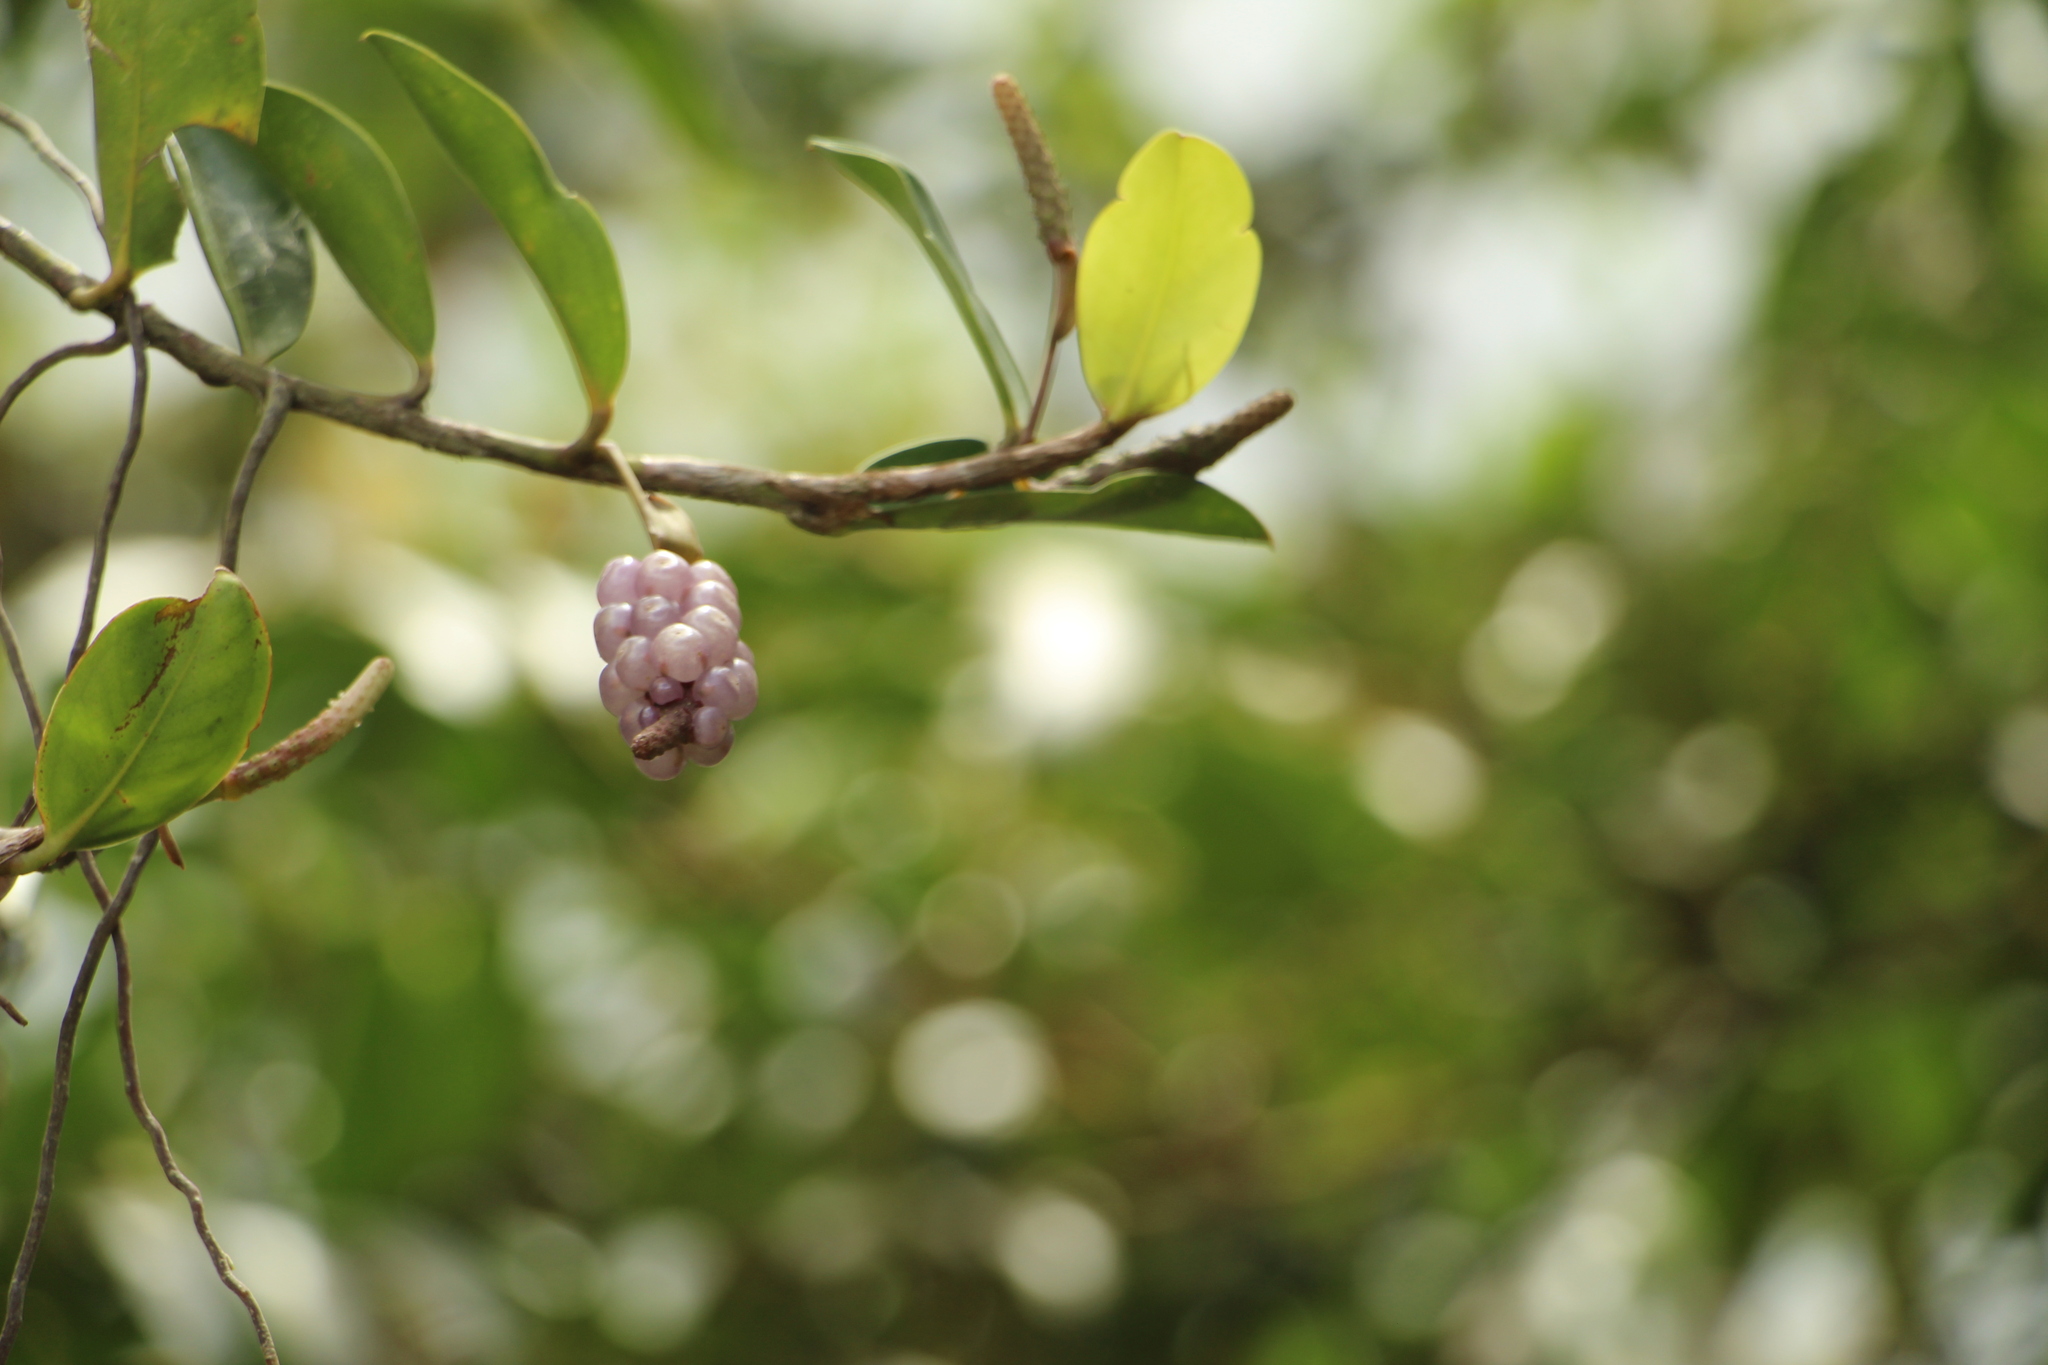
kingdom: Plantae
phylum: Tracheophyta
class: Liliopsida
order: Alismatales
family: Araceae
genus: Anthurium
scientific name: Anthurium scandens
